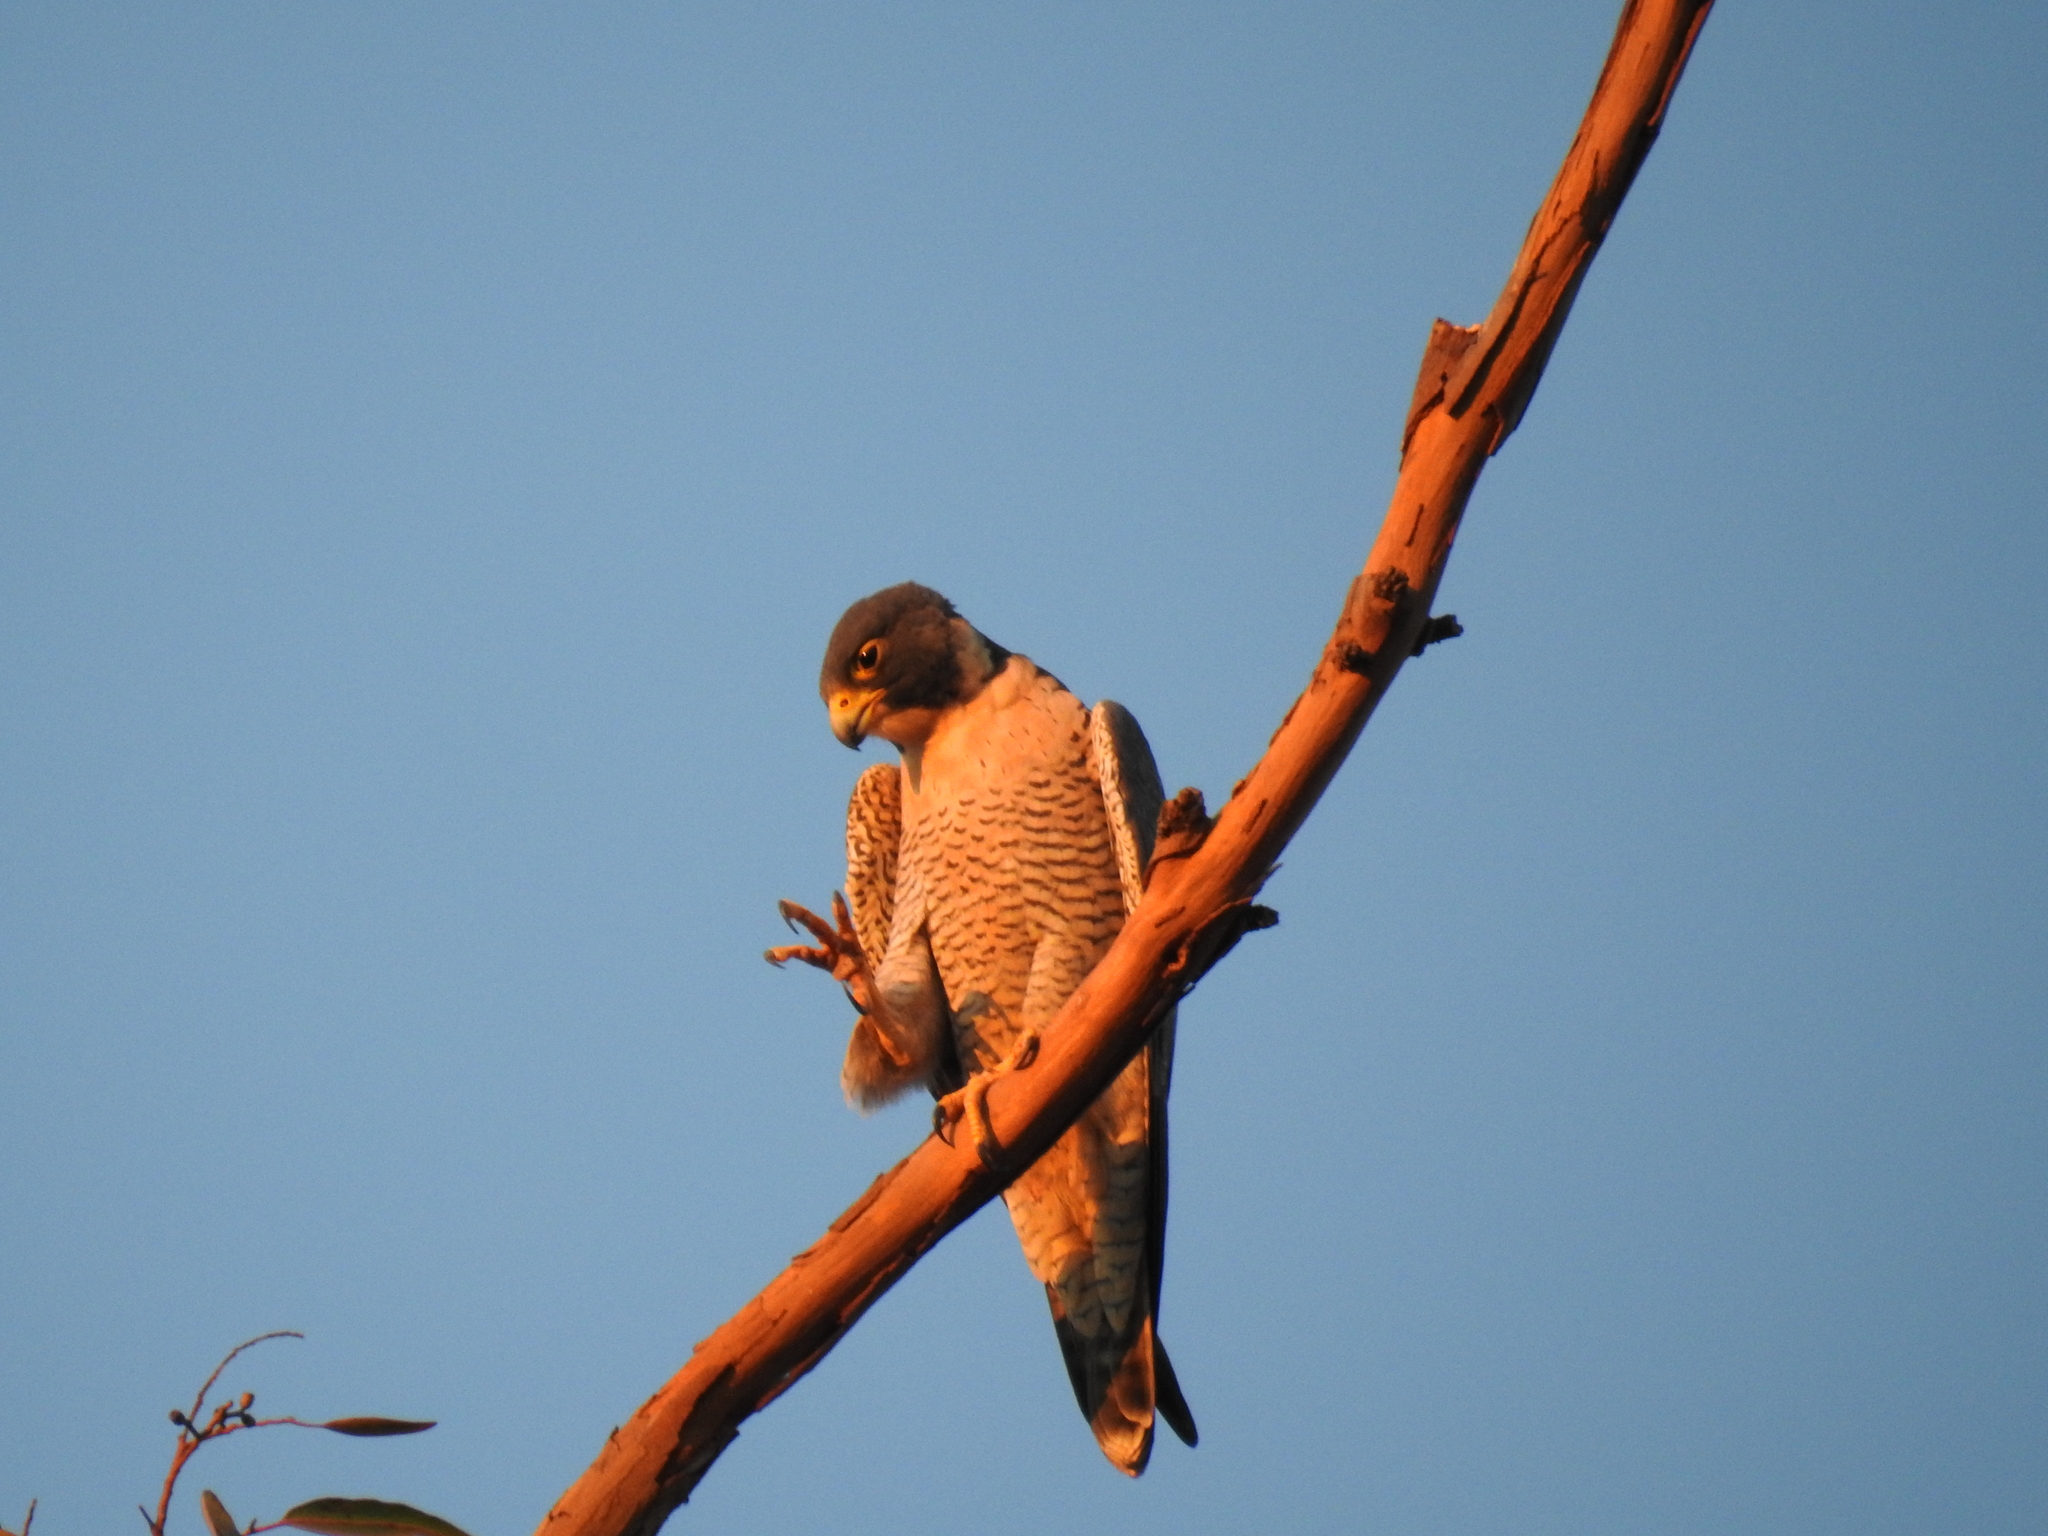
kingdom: Animalia
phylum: Chordata
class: Aves
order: Falconiformes
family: Falconidae
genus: Falco
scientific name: Falco peregrinus
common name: Peregrine falcon
